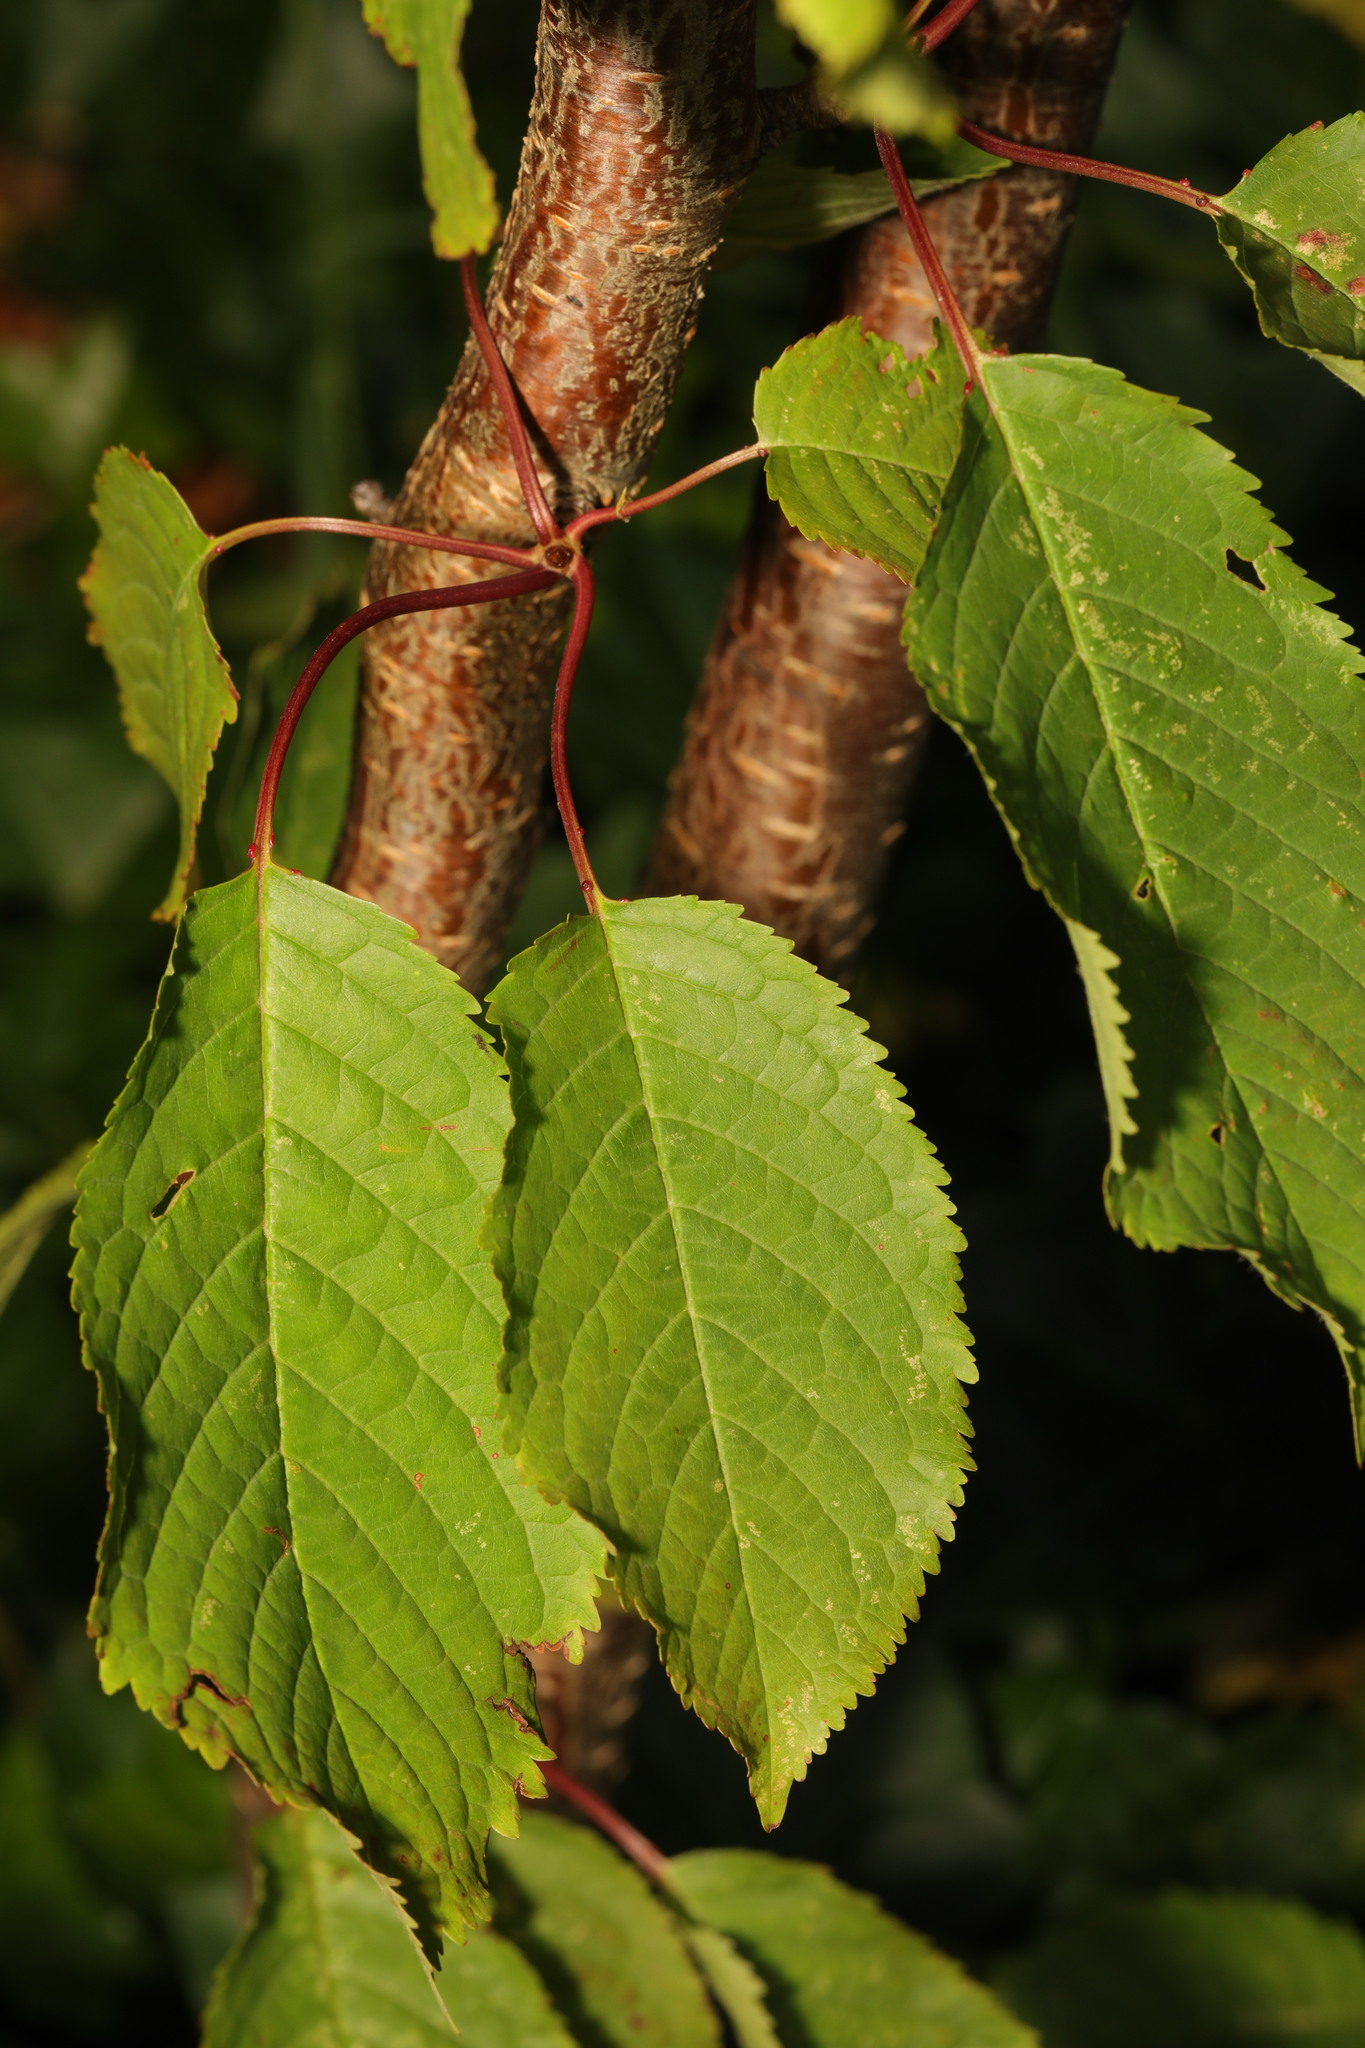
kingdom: Plantae
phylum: Tracheophyta
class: Magnoliopsida
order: Rosales
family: Rosaceae
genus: Prunus
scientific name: Prunus avium
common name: Sweet cherry
